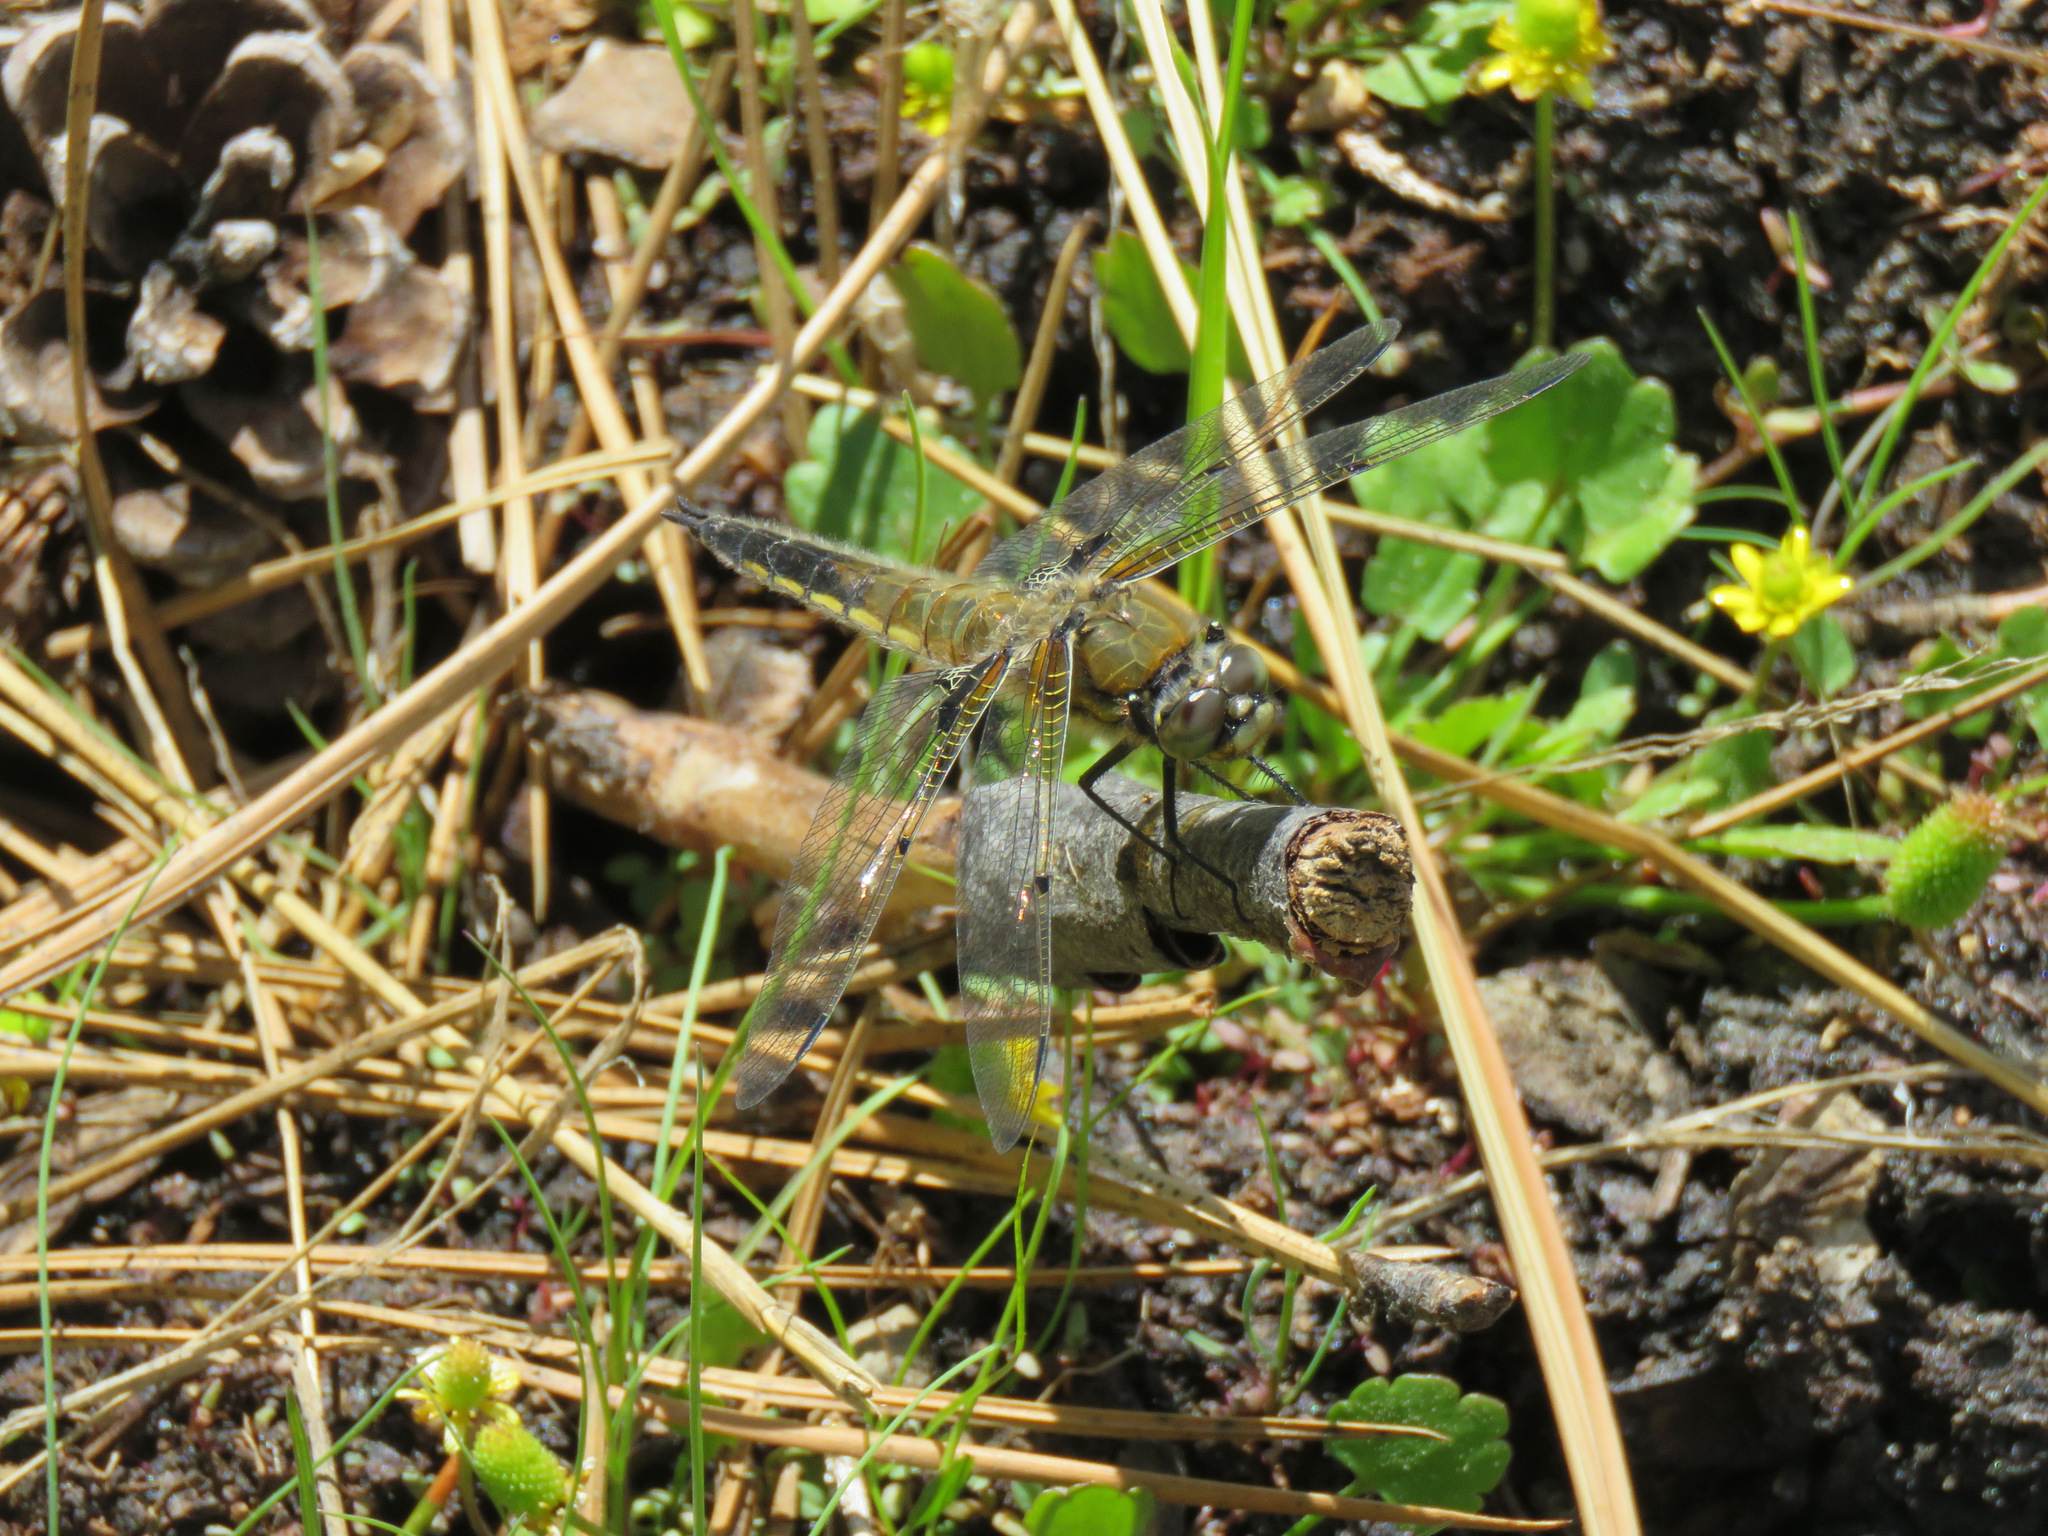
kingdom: Animalia
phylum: Arthropoda
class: Insecta
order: Odonata
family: Libellulidae
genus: Libellula
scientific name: Libellula quadrimaculata
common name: Four-spotted chaser
